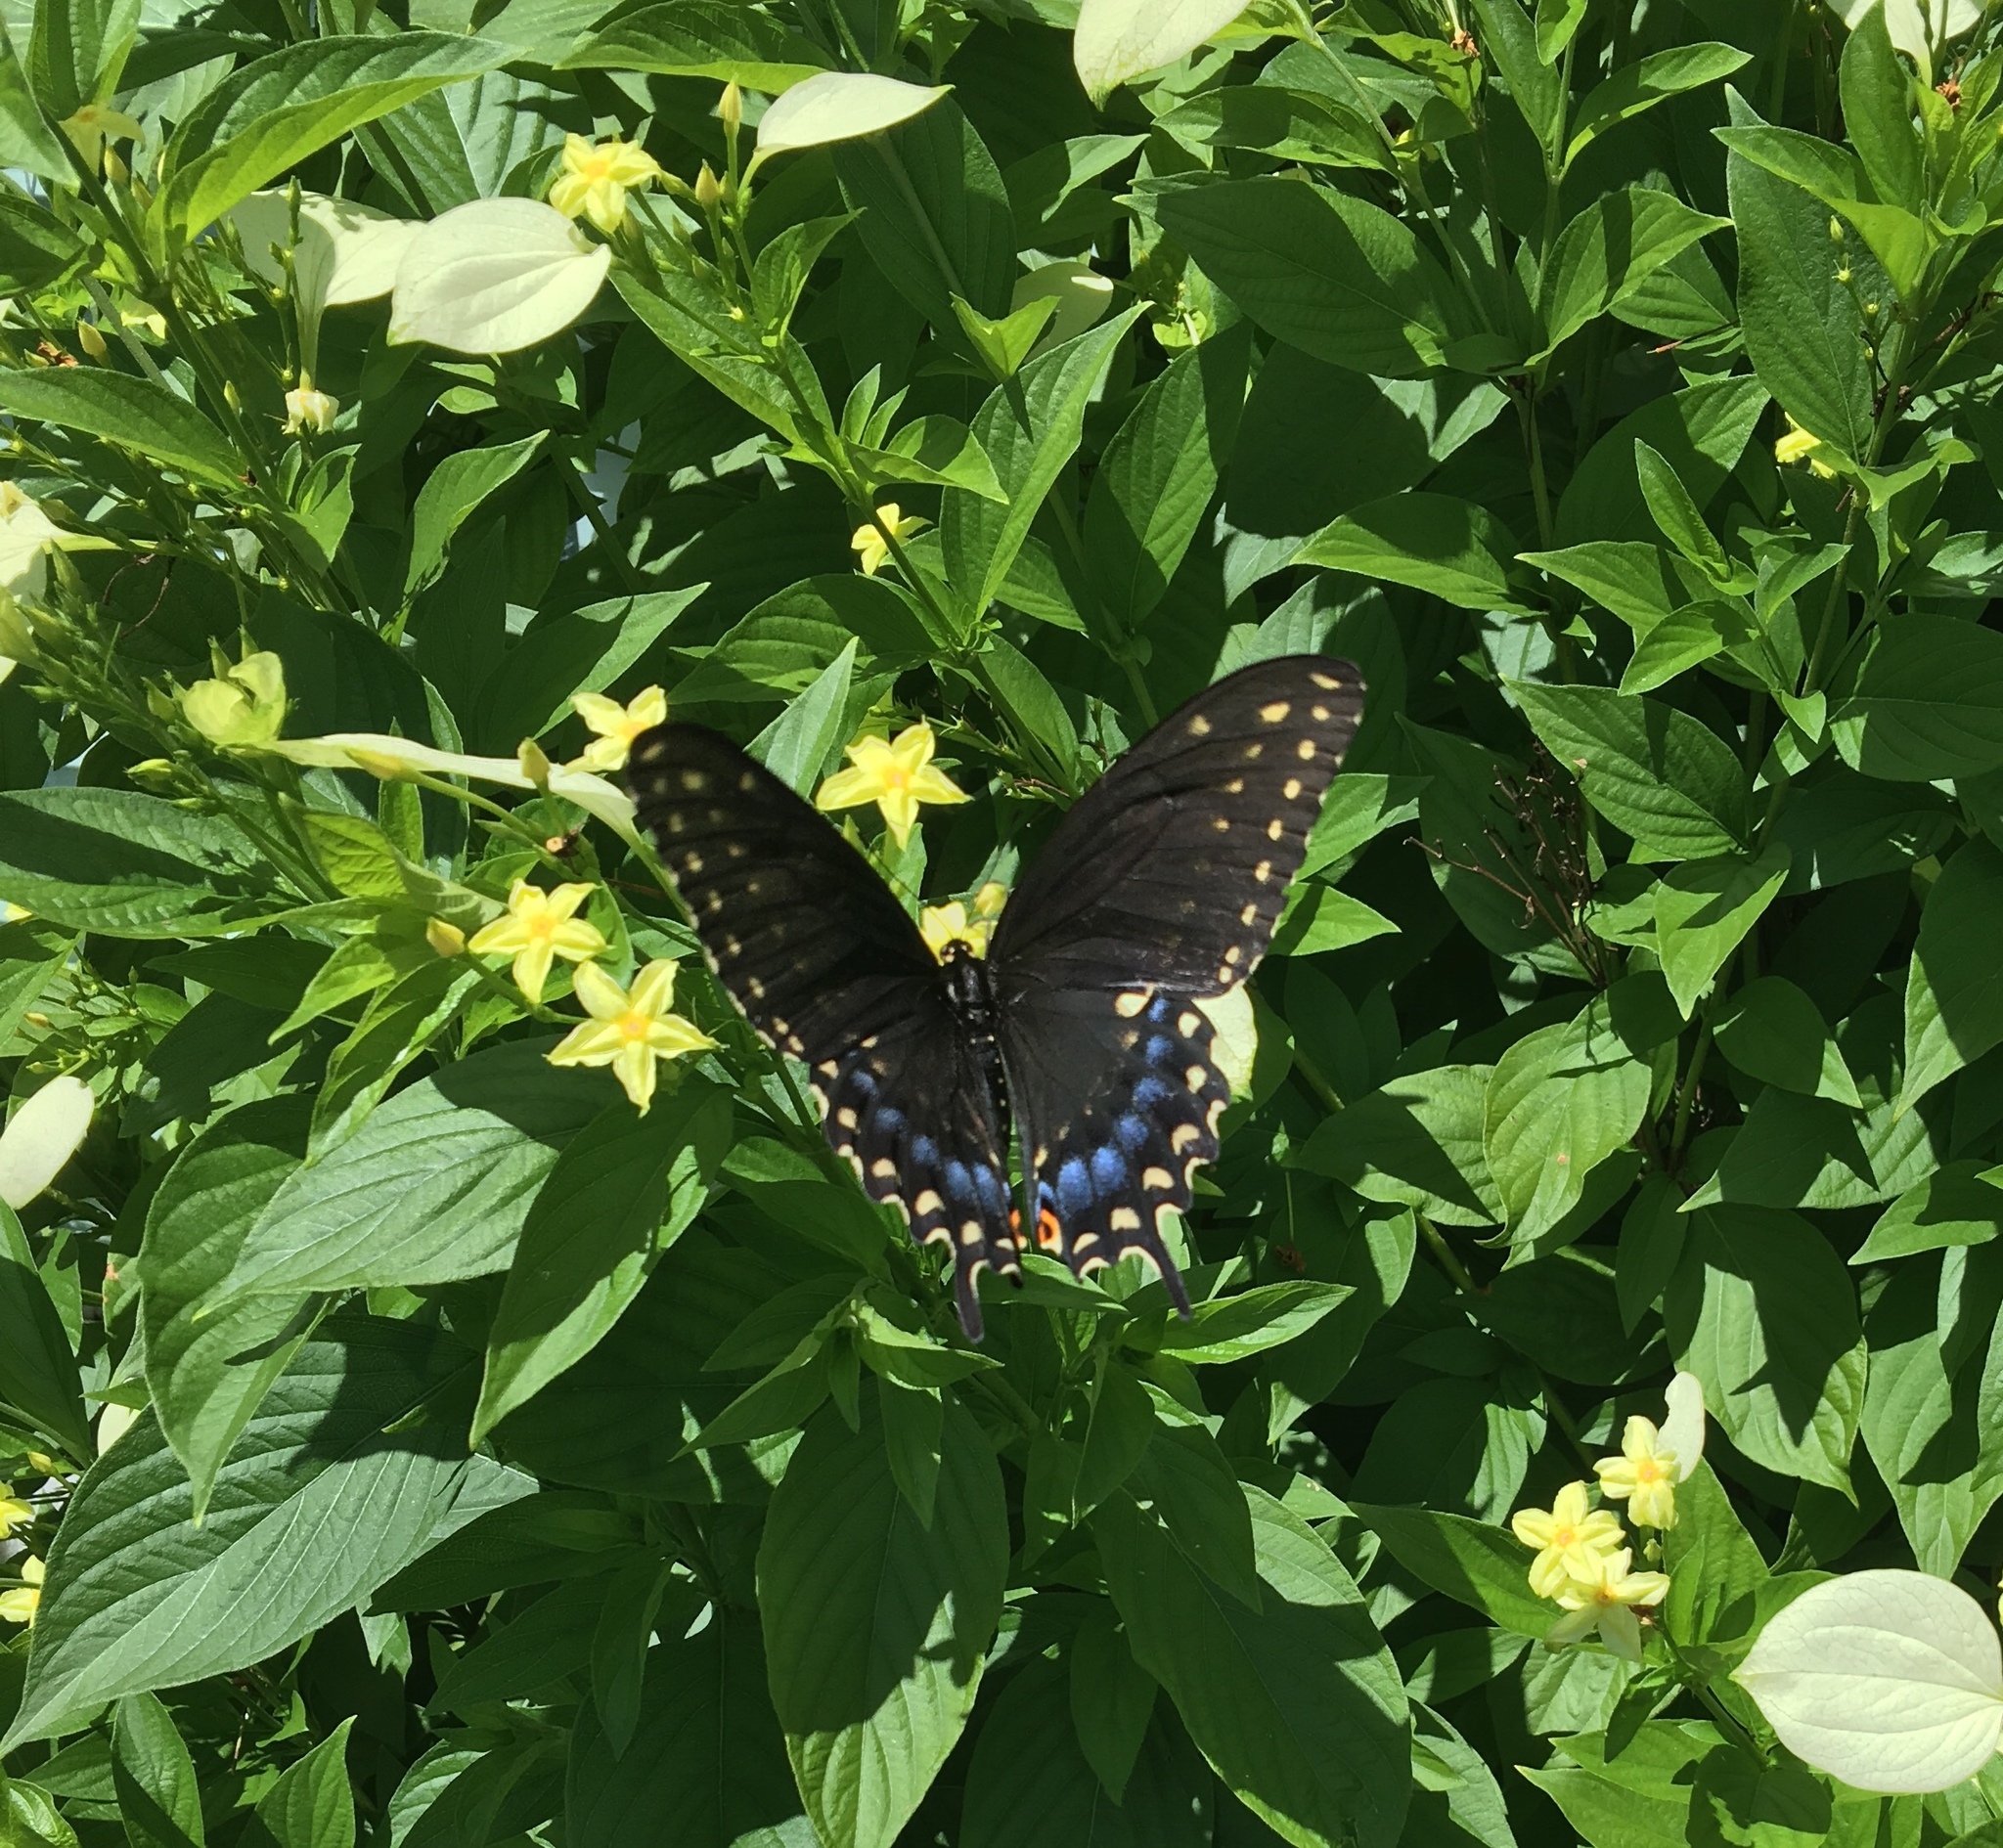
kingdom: Animalia
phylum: Arthropoda
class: Insecta
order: Lepidoptera
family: Papilionidae
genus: Papilio
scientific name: Papilio polyxenes
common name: Black swallowtail
